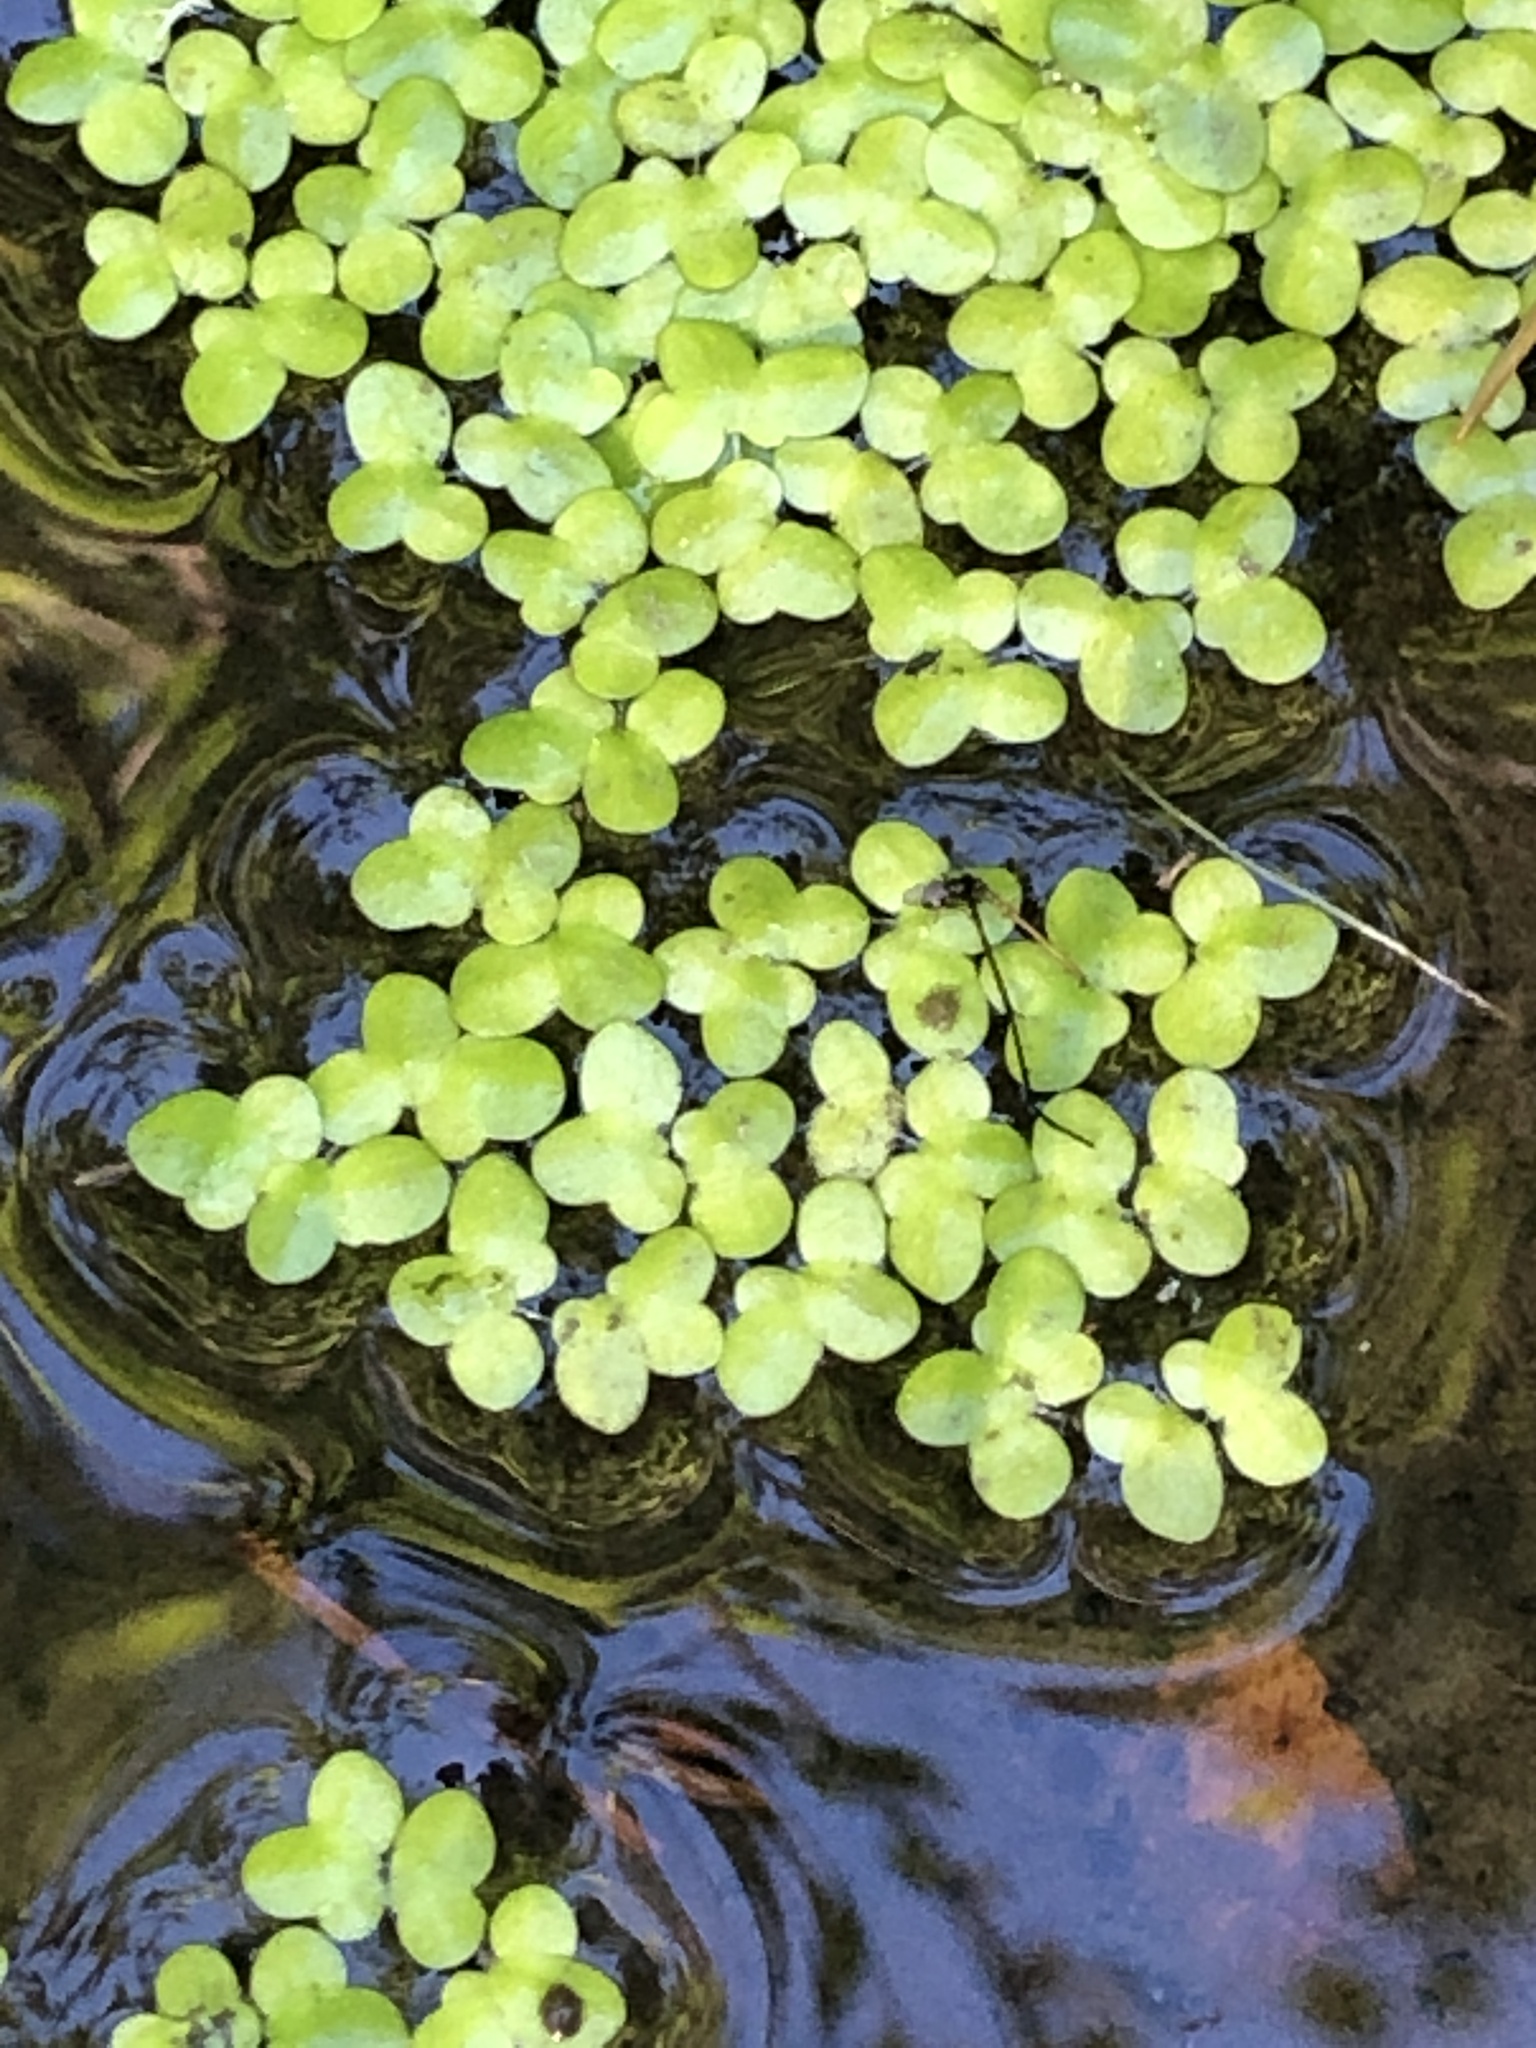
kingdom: Plantae
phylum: Tracheophyta
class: Liliopsida
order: Alismatales
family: Araceae
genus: Lemna
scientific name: Lemna minor
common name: Common duckweed
